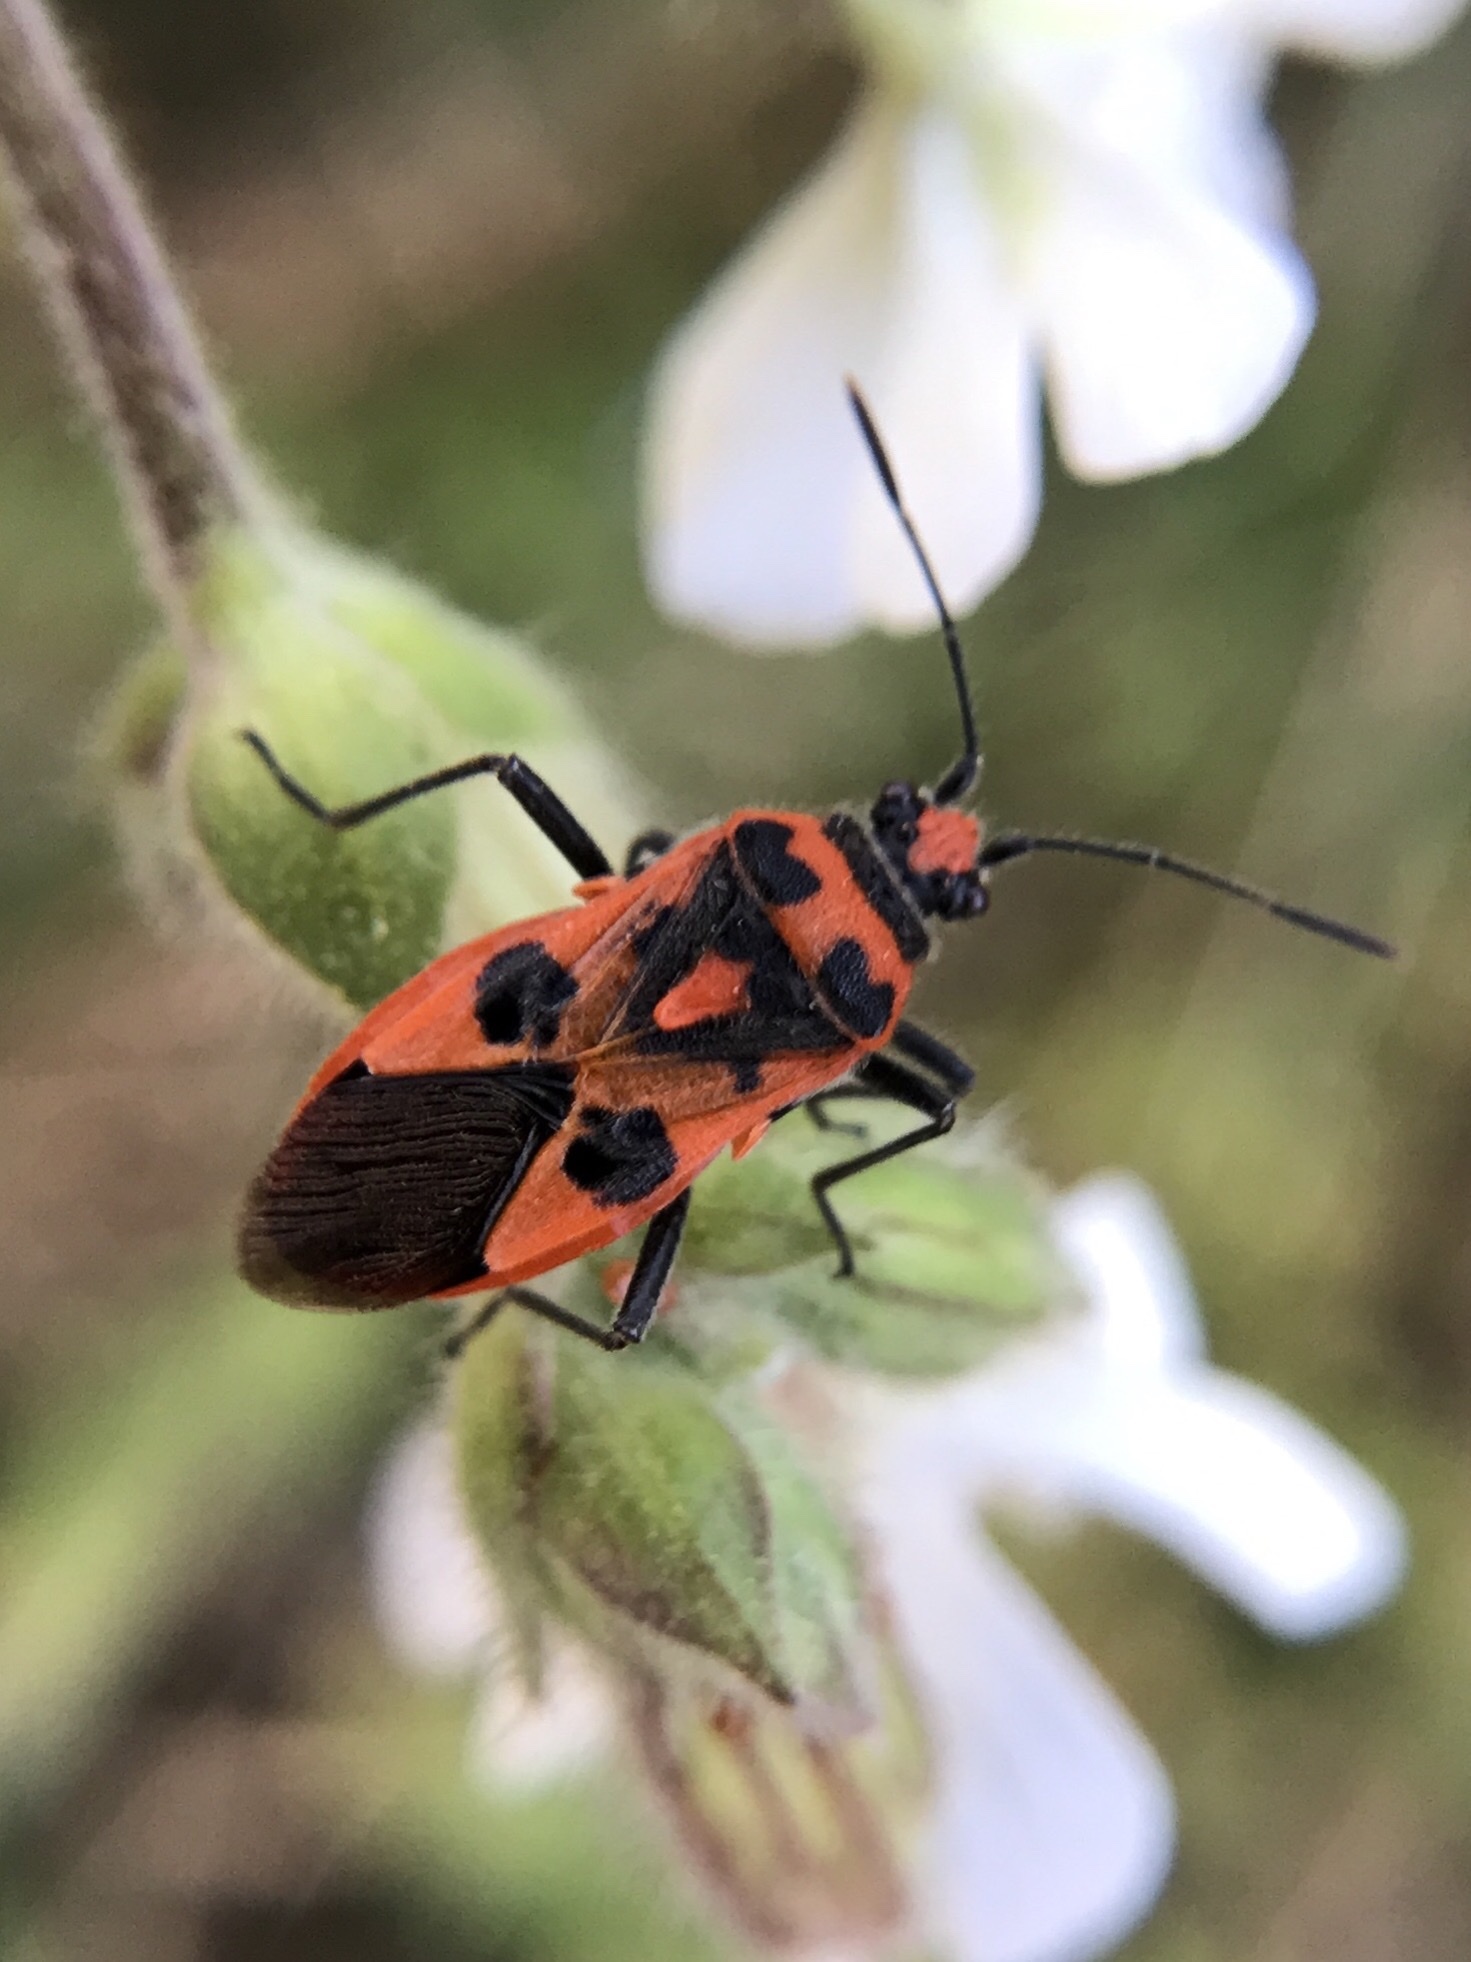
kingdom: Animalia
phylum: Arthropoda
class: Insecta
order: Hemiptera
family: Rhopalidae
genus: Corizus
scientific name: Corizus hyoscyami
